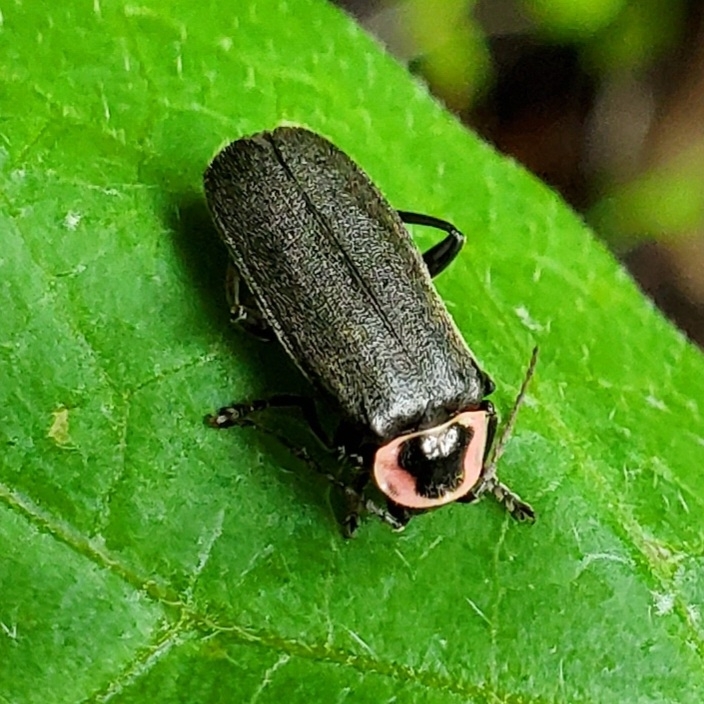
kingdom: Animalia
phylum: Arthropoda
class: Insecta
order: Coleoptera
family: Cantharidae
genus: Atalantycha
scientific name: Atalantycha neglecta
